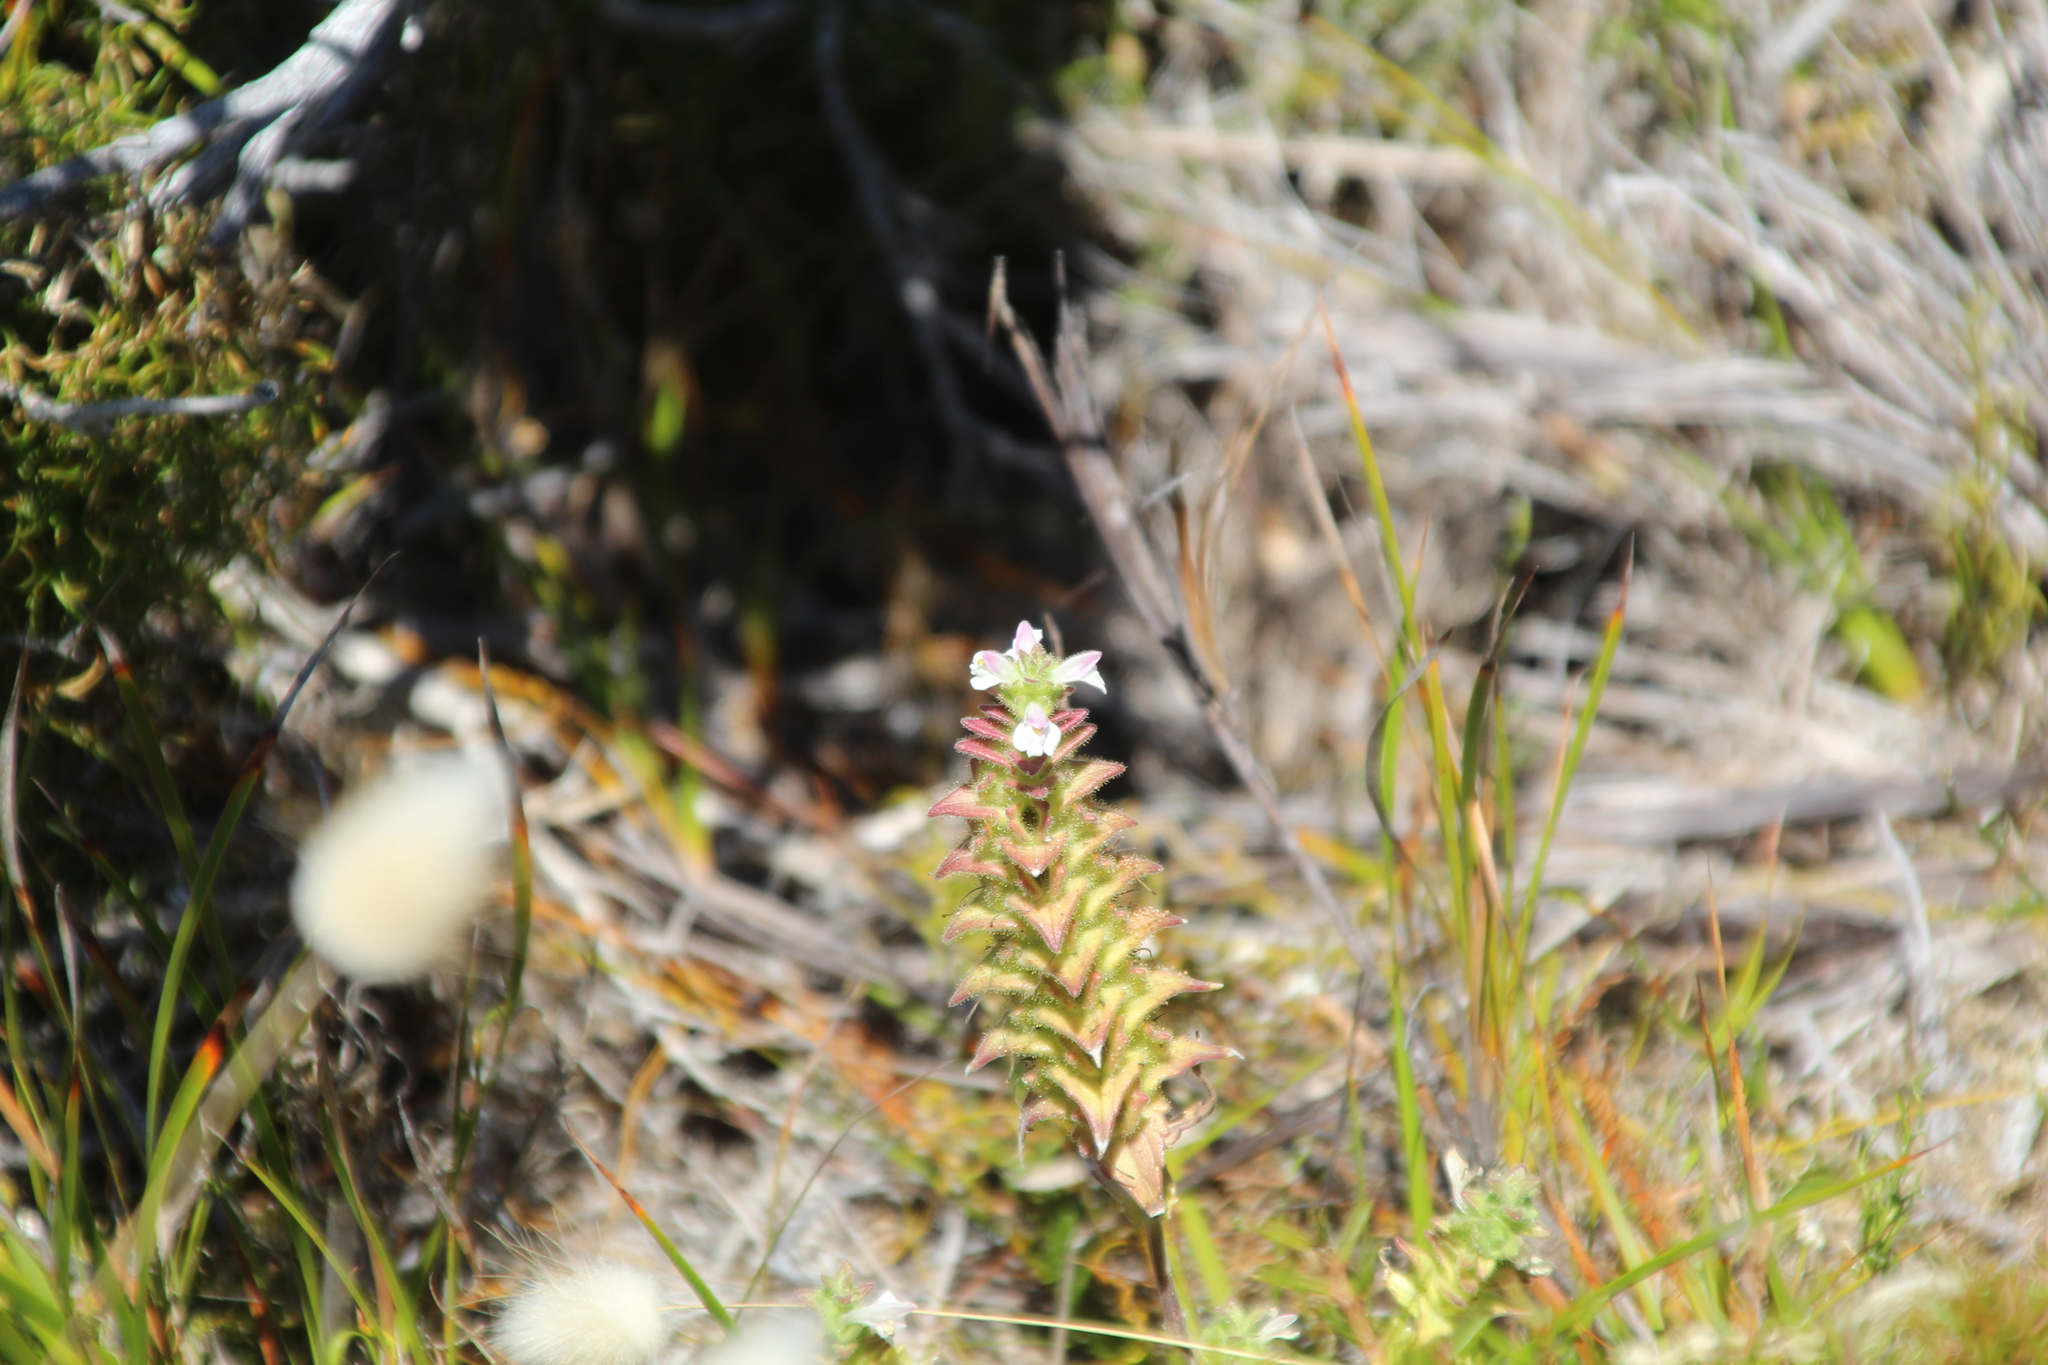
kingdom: Plantae
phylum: Tracheophyta
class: Magnoliopsida
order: Lamiales
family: Orobanchaceae
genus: Bellardia
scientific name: Bellardia trixago
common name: Mediterranean lineseed
